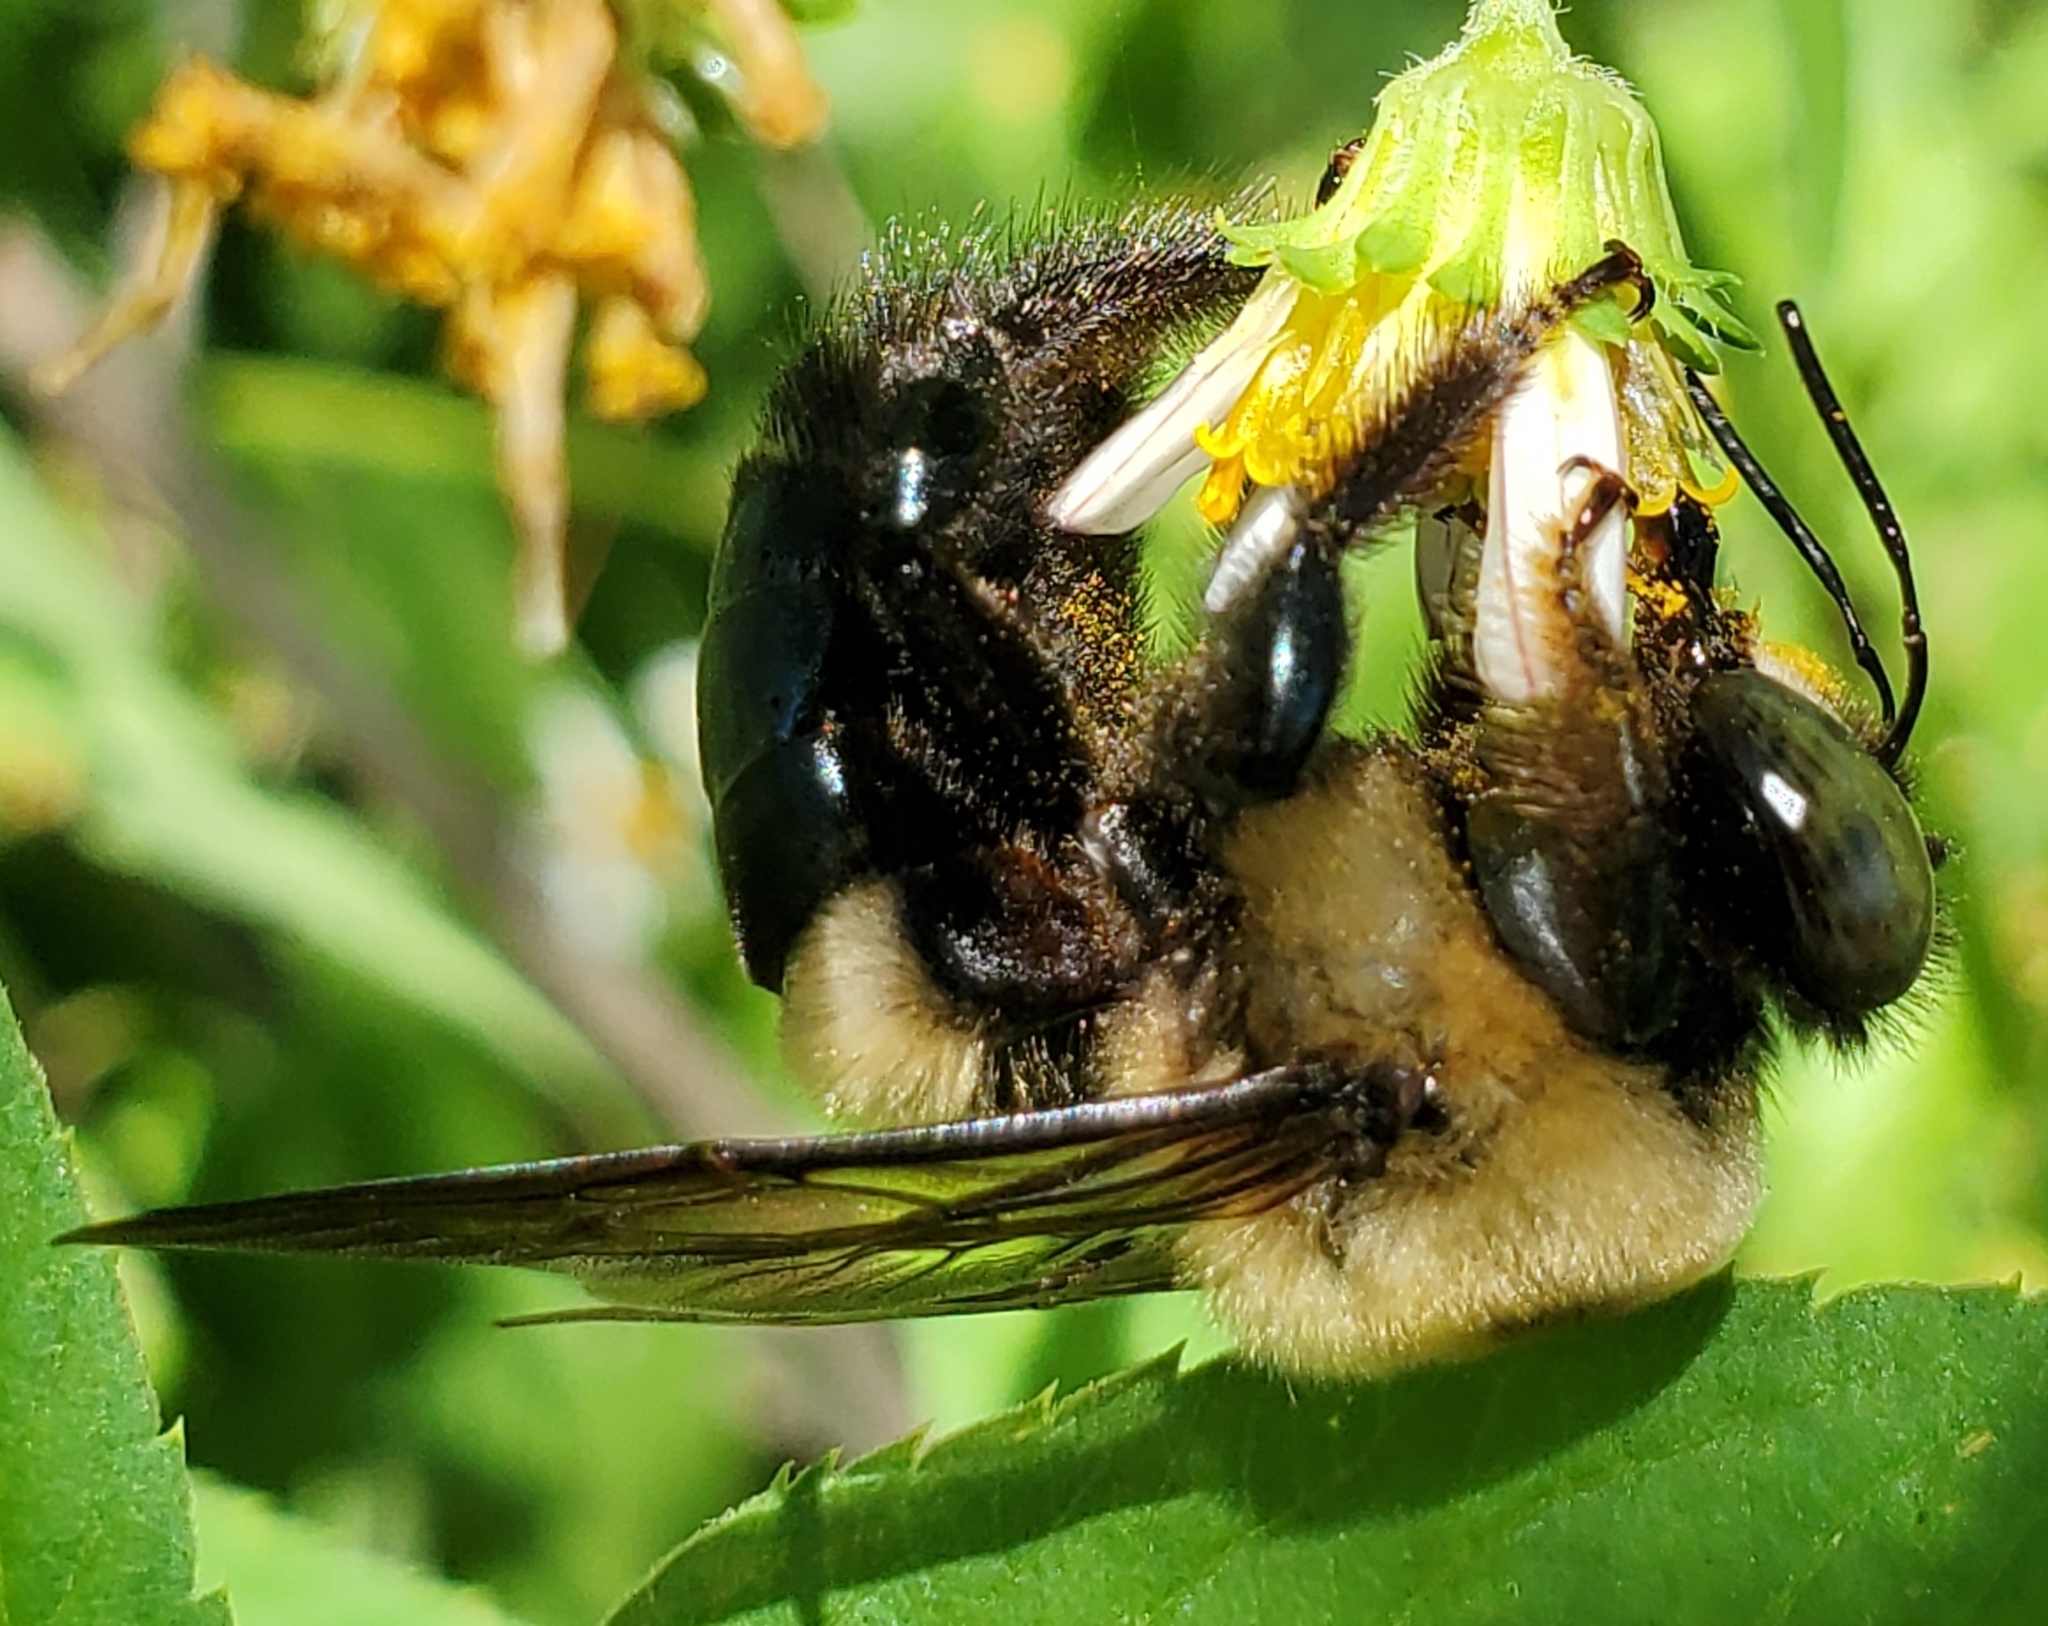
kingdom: Animalia
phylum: Arthropoda
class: Insecta
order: Hymenoptera
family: Apidae
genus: Xylocopa
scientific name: Xylocopa virginica
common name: Carpenter bee
